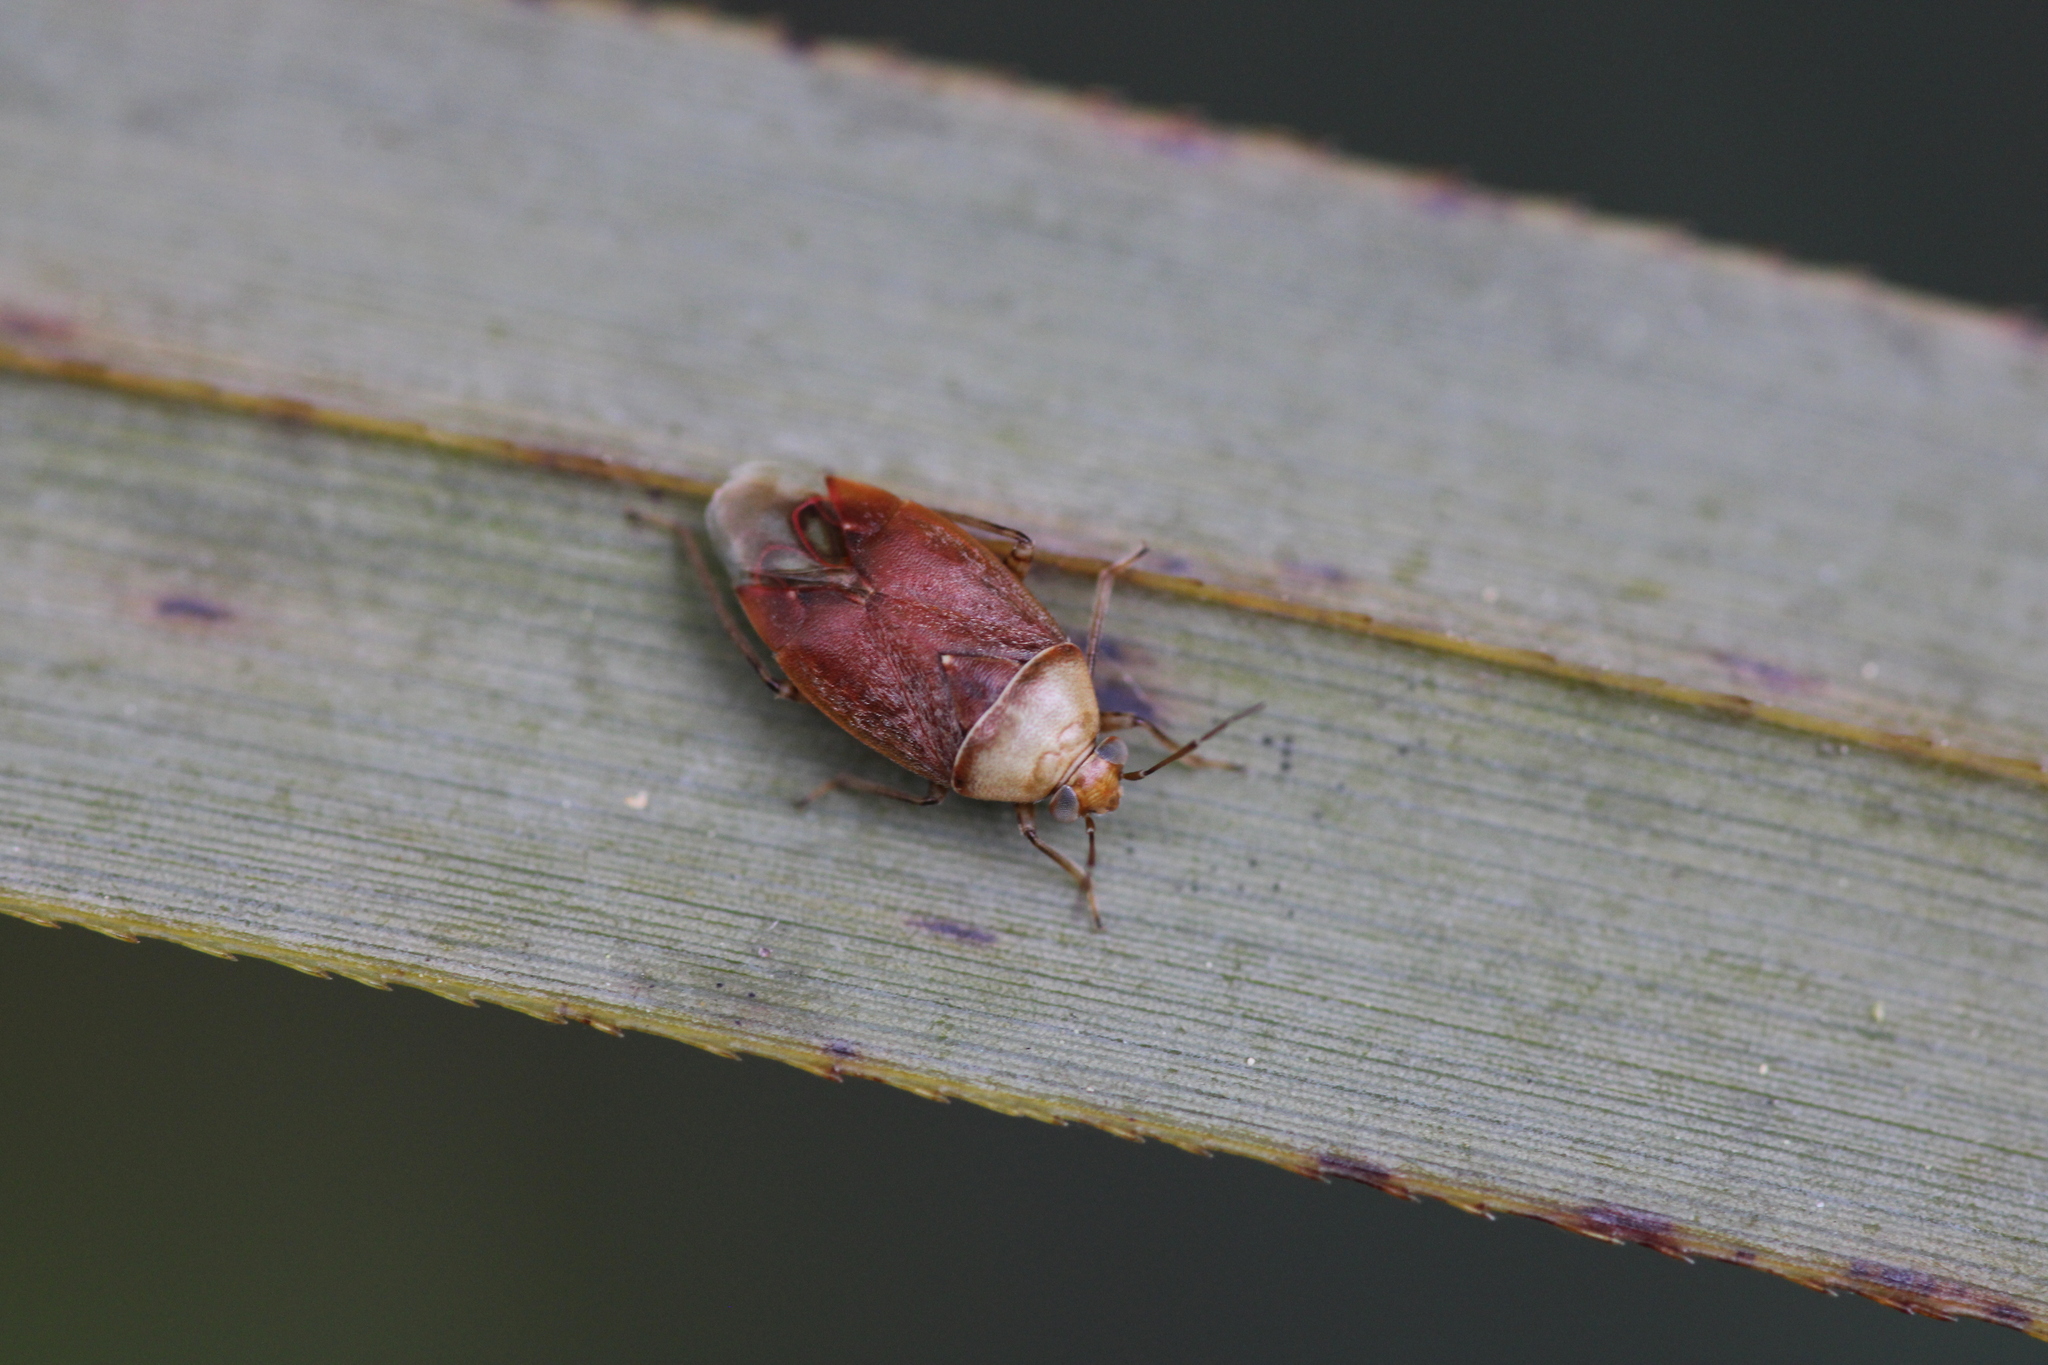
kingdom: Animalia
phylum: Arthropoda
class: Insecta
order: Hemiptera
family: Miridae
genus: Agnocoris
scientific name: Agnocoris rubicundus
